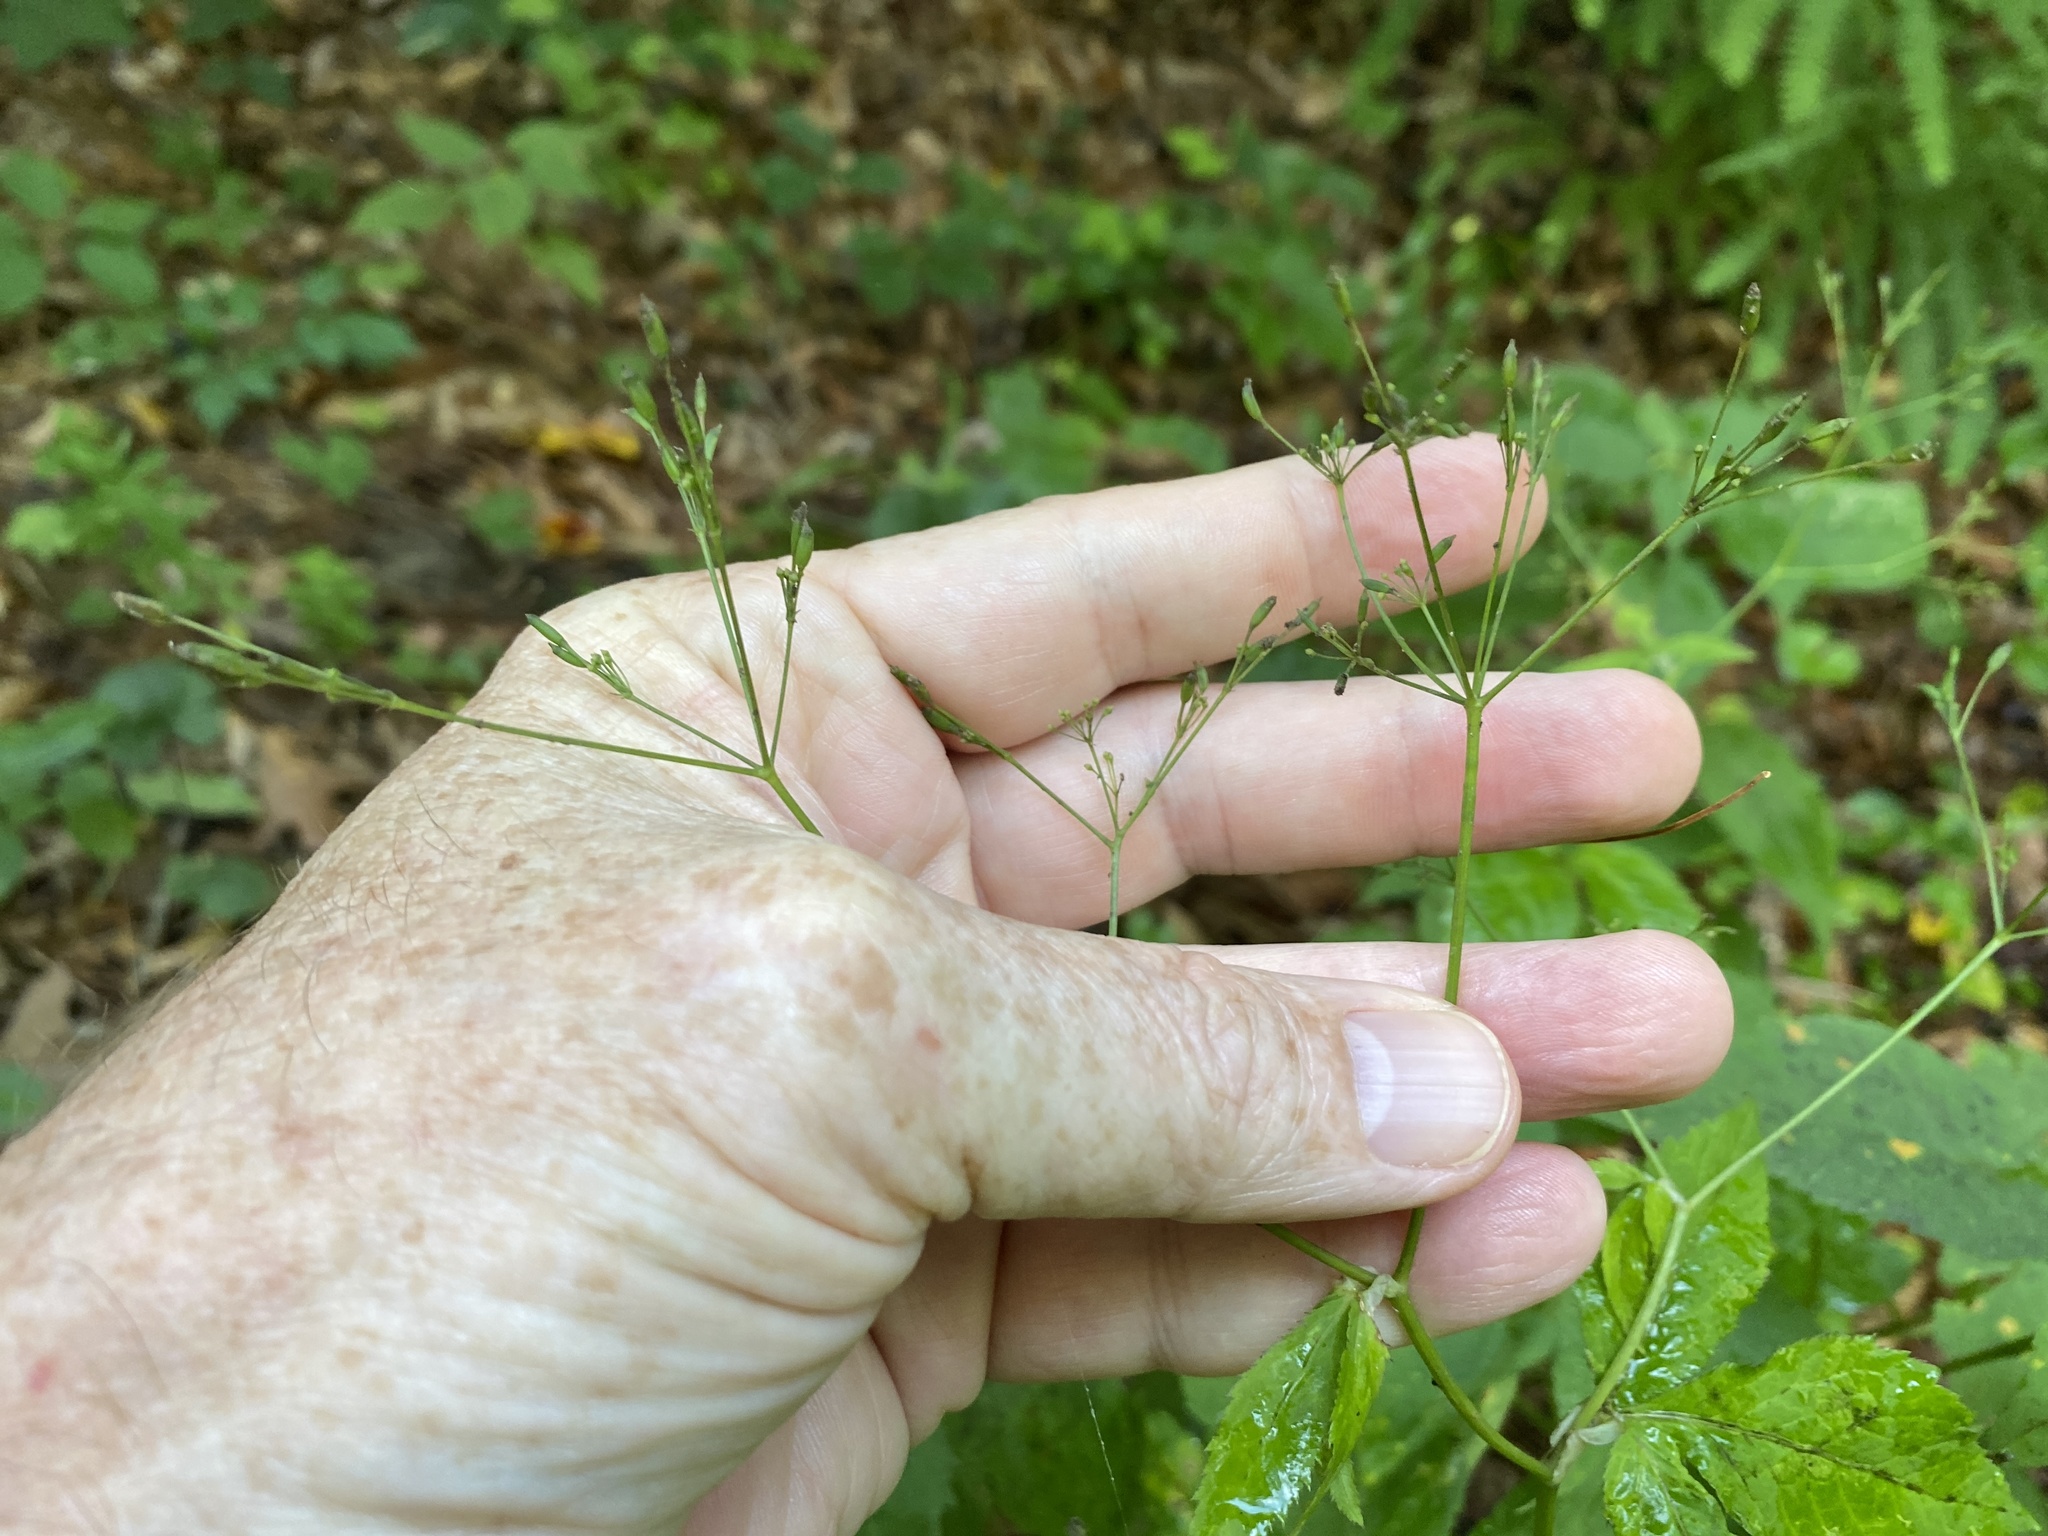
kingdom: Plantae
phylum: Tracheophyta
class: Magnoliopsida
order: Apiales
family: Apiaceae
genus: Cryptotaenia
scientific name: Cryptotaenia canadensis
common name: Honewort
